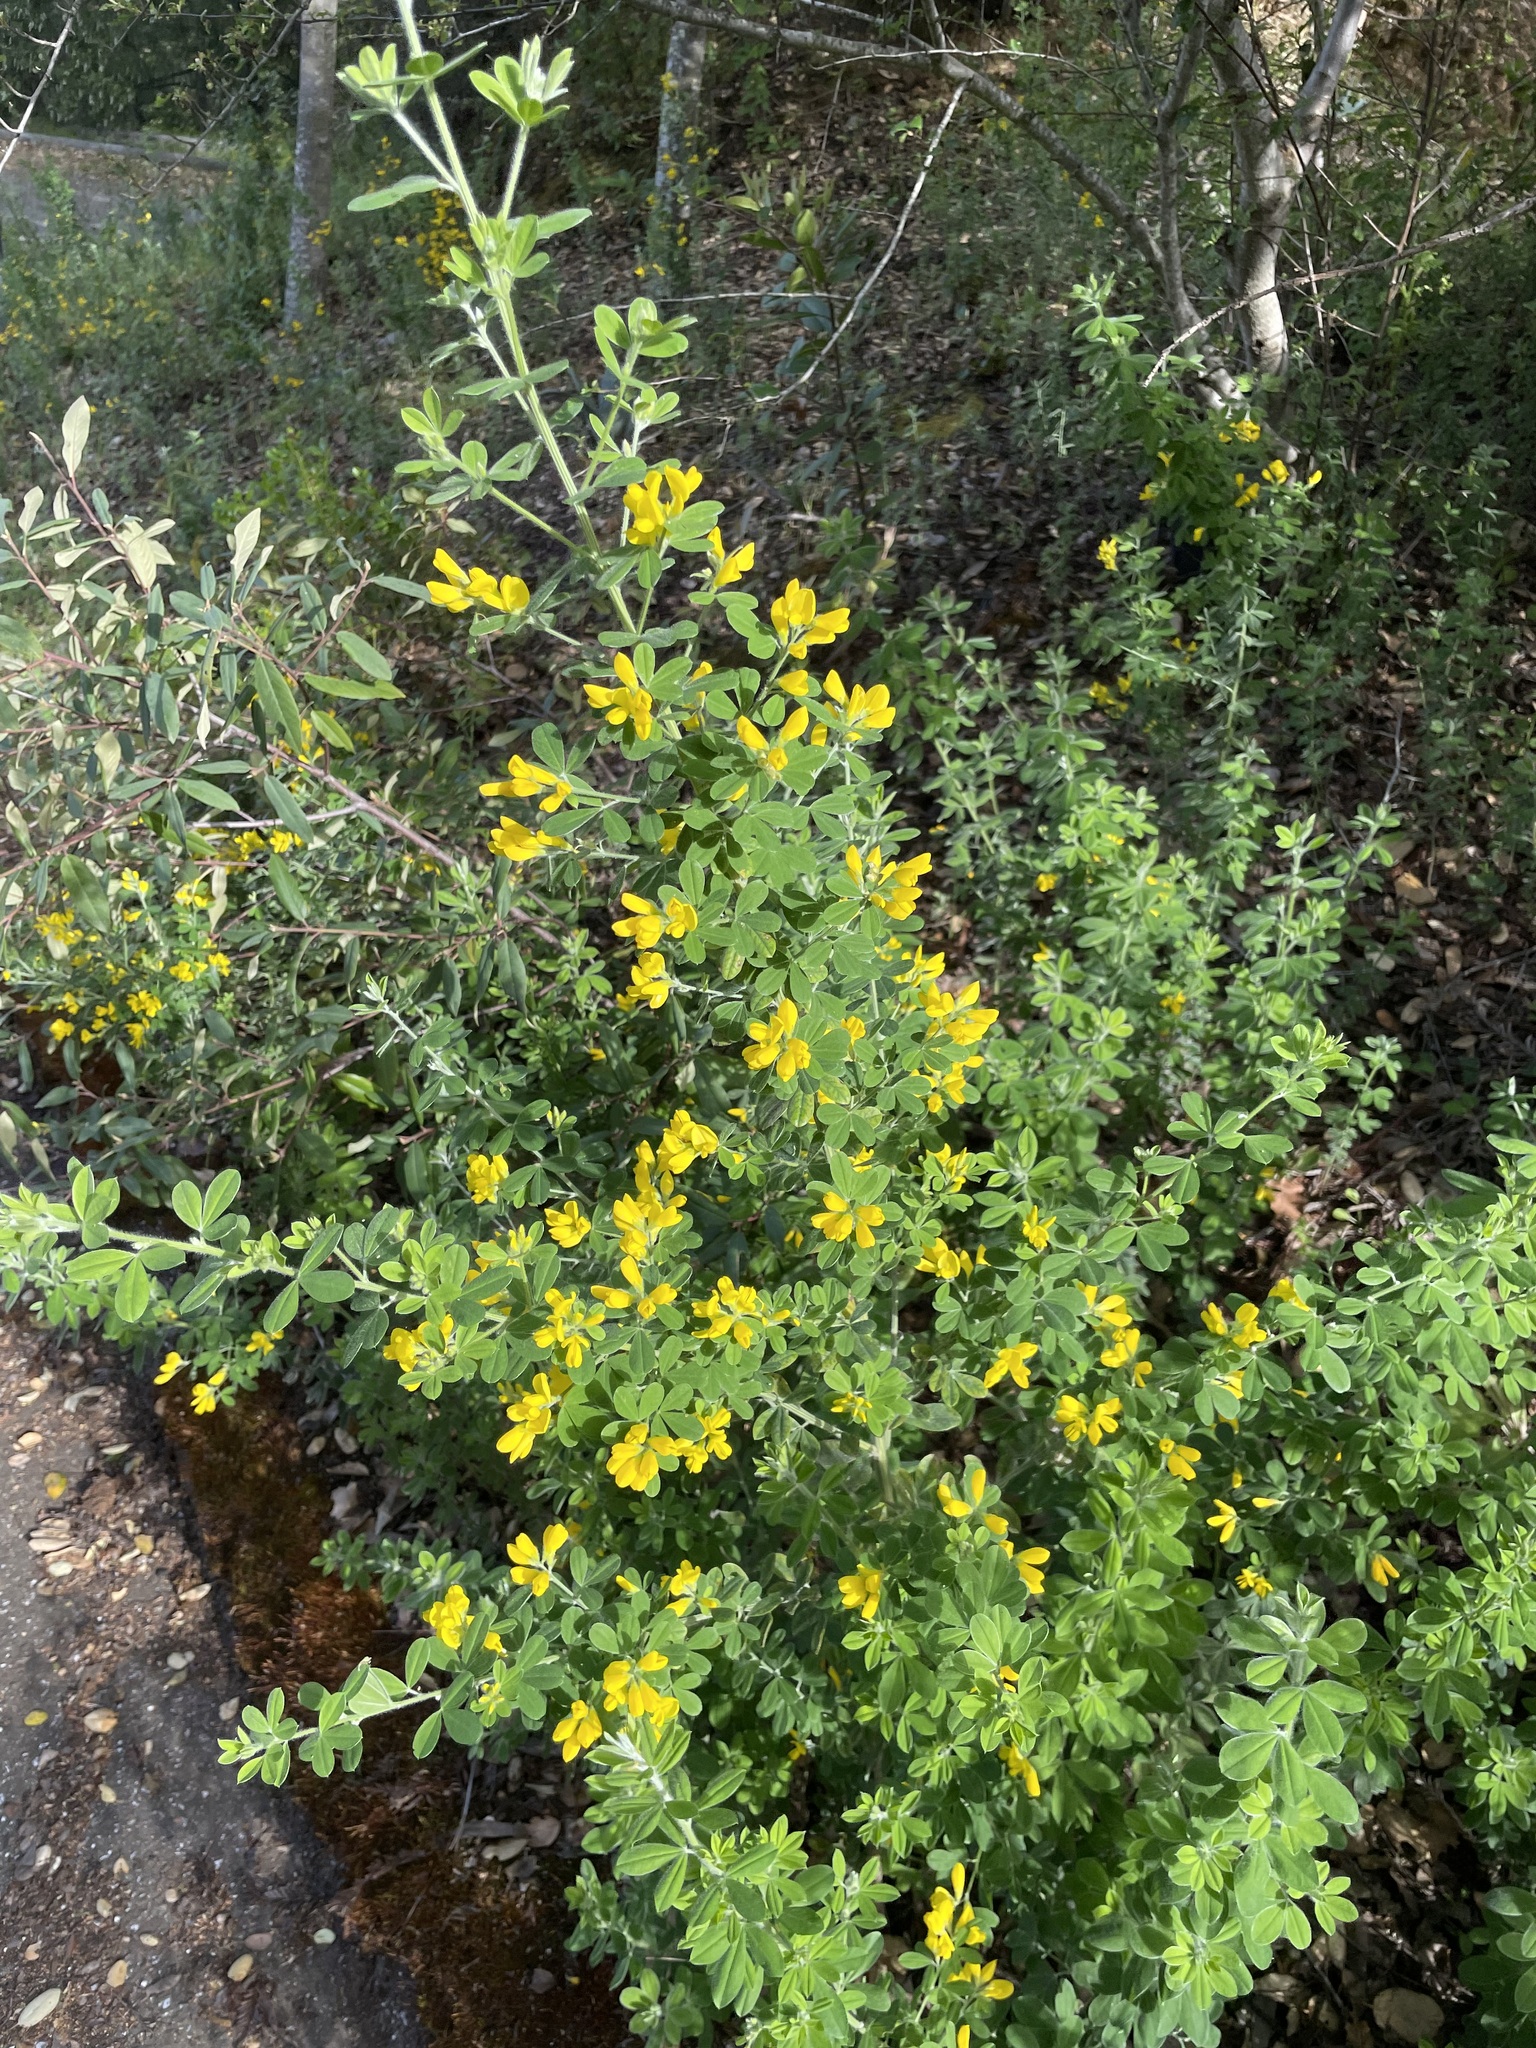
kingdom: Plantae
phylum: Tracheophyta
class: Magnoliopsida
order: Fabales
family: Fabaceae
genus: Genista
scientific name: Genista monspessulana
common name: Montpellier broom
